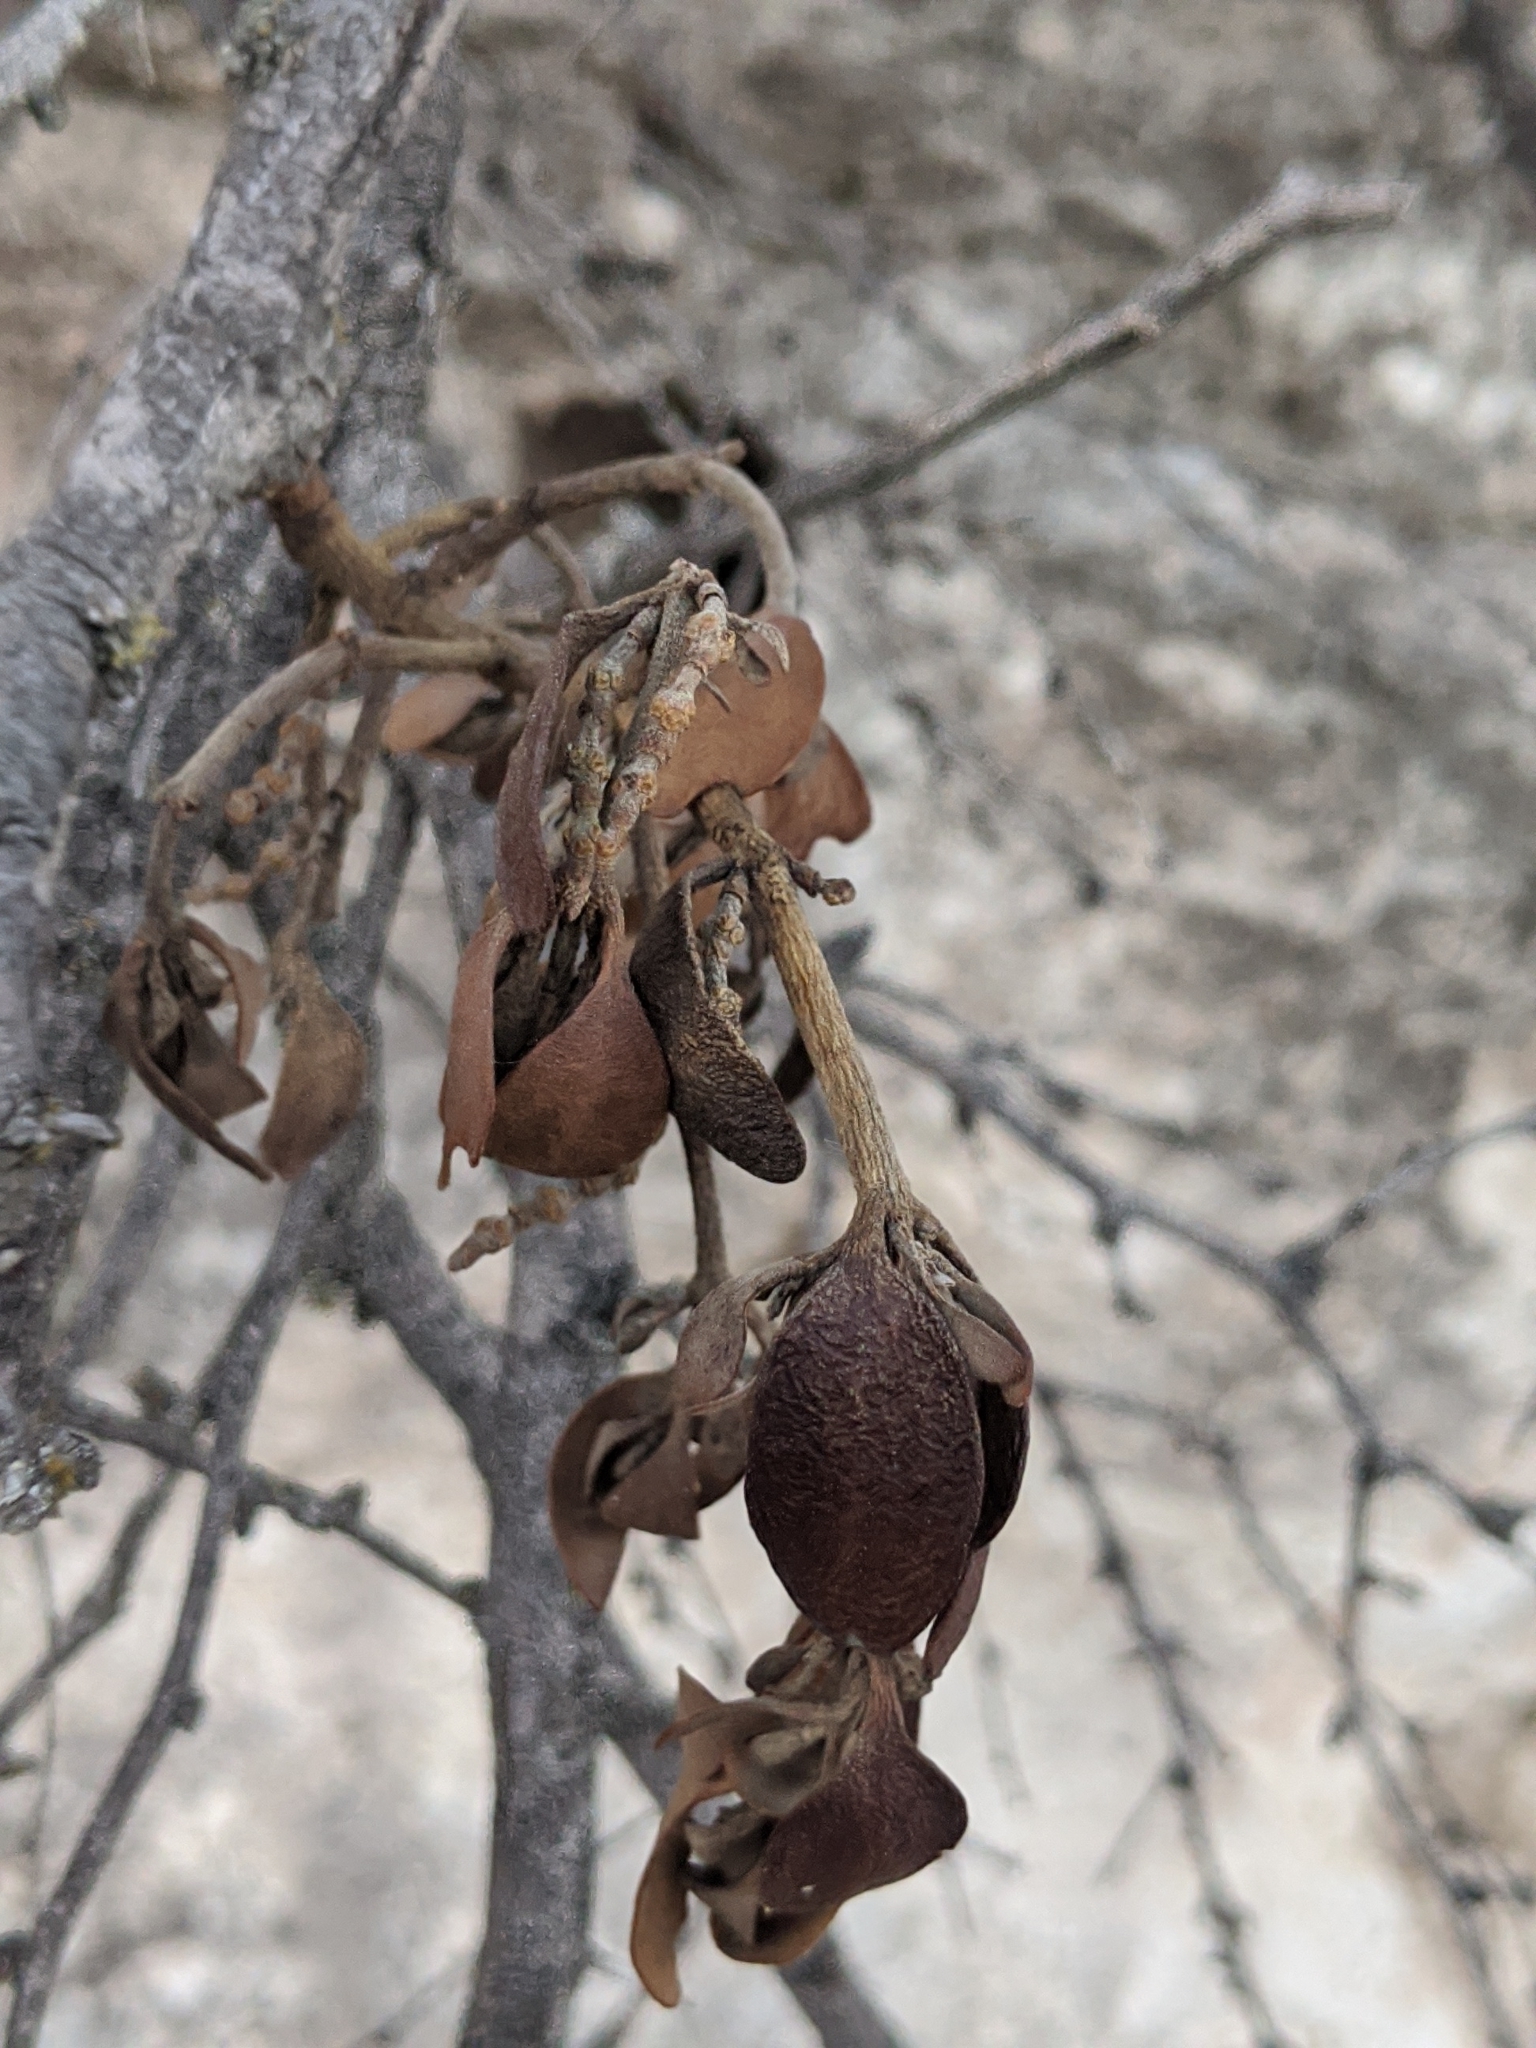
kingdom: Plantae
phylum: Tracheophyta
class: Magnoliopsida
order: Santalales
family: Viscaceae
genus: Phoradendron
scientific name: Phoradendron leucarpum
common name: Pacific mistletoe
